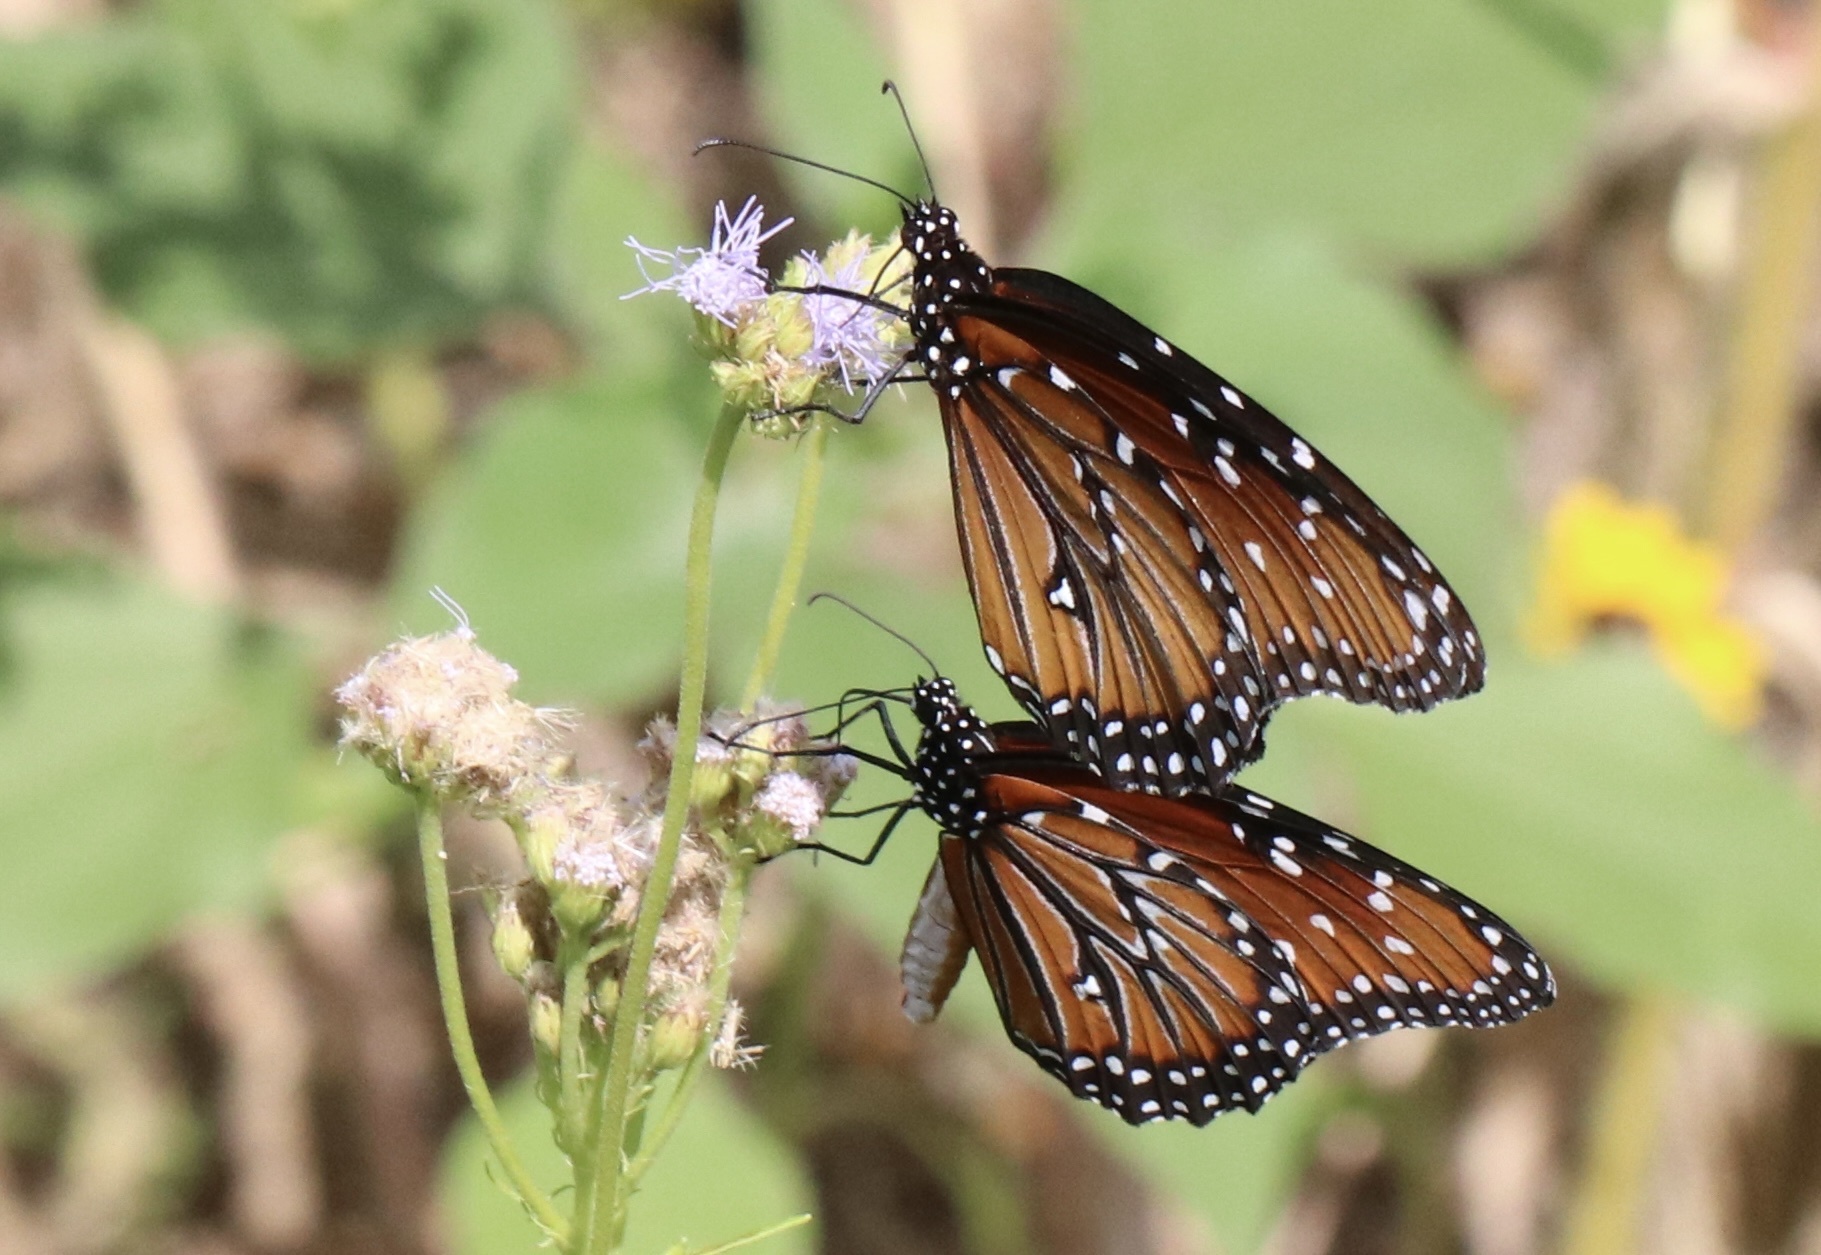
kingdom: Animalia
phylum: Arthropoda
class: Insecta
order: Lepidoptera
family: Nymphalidae
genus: Danaus
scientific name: Danaus gilippus
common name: Queen
